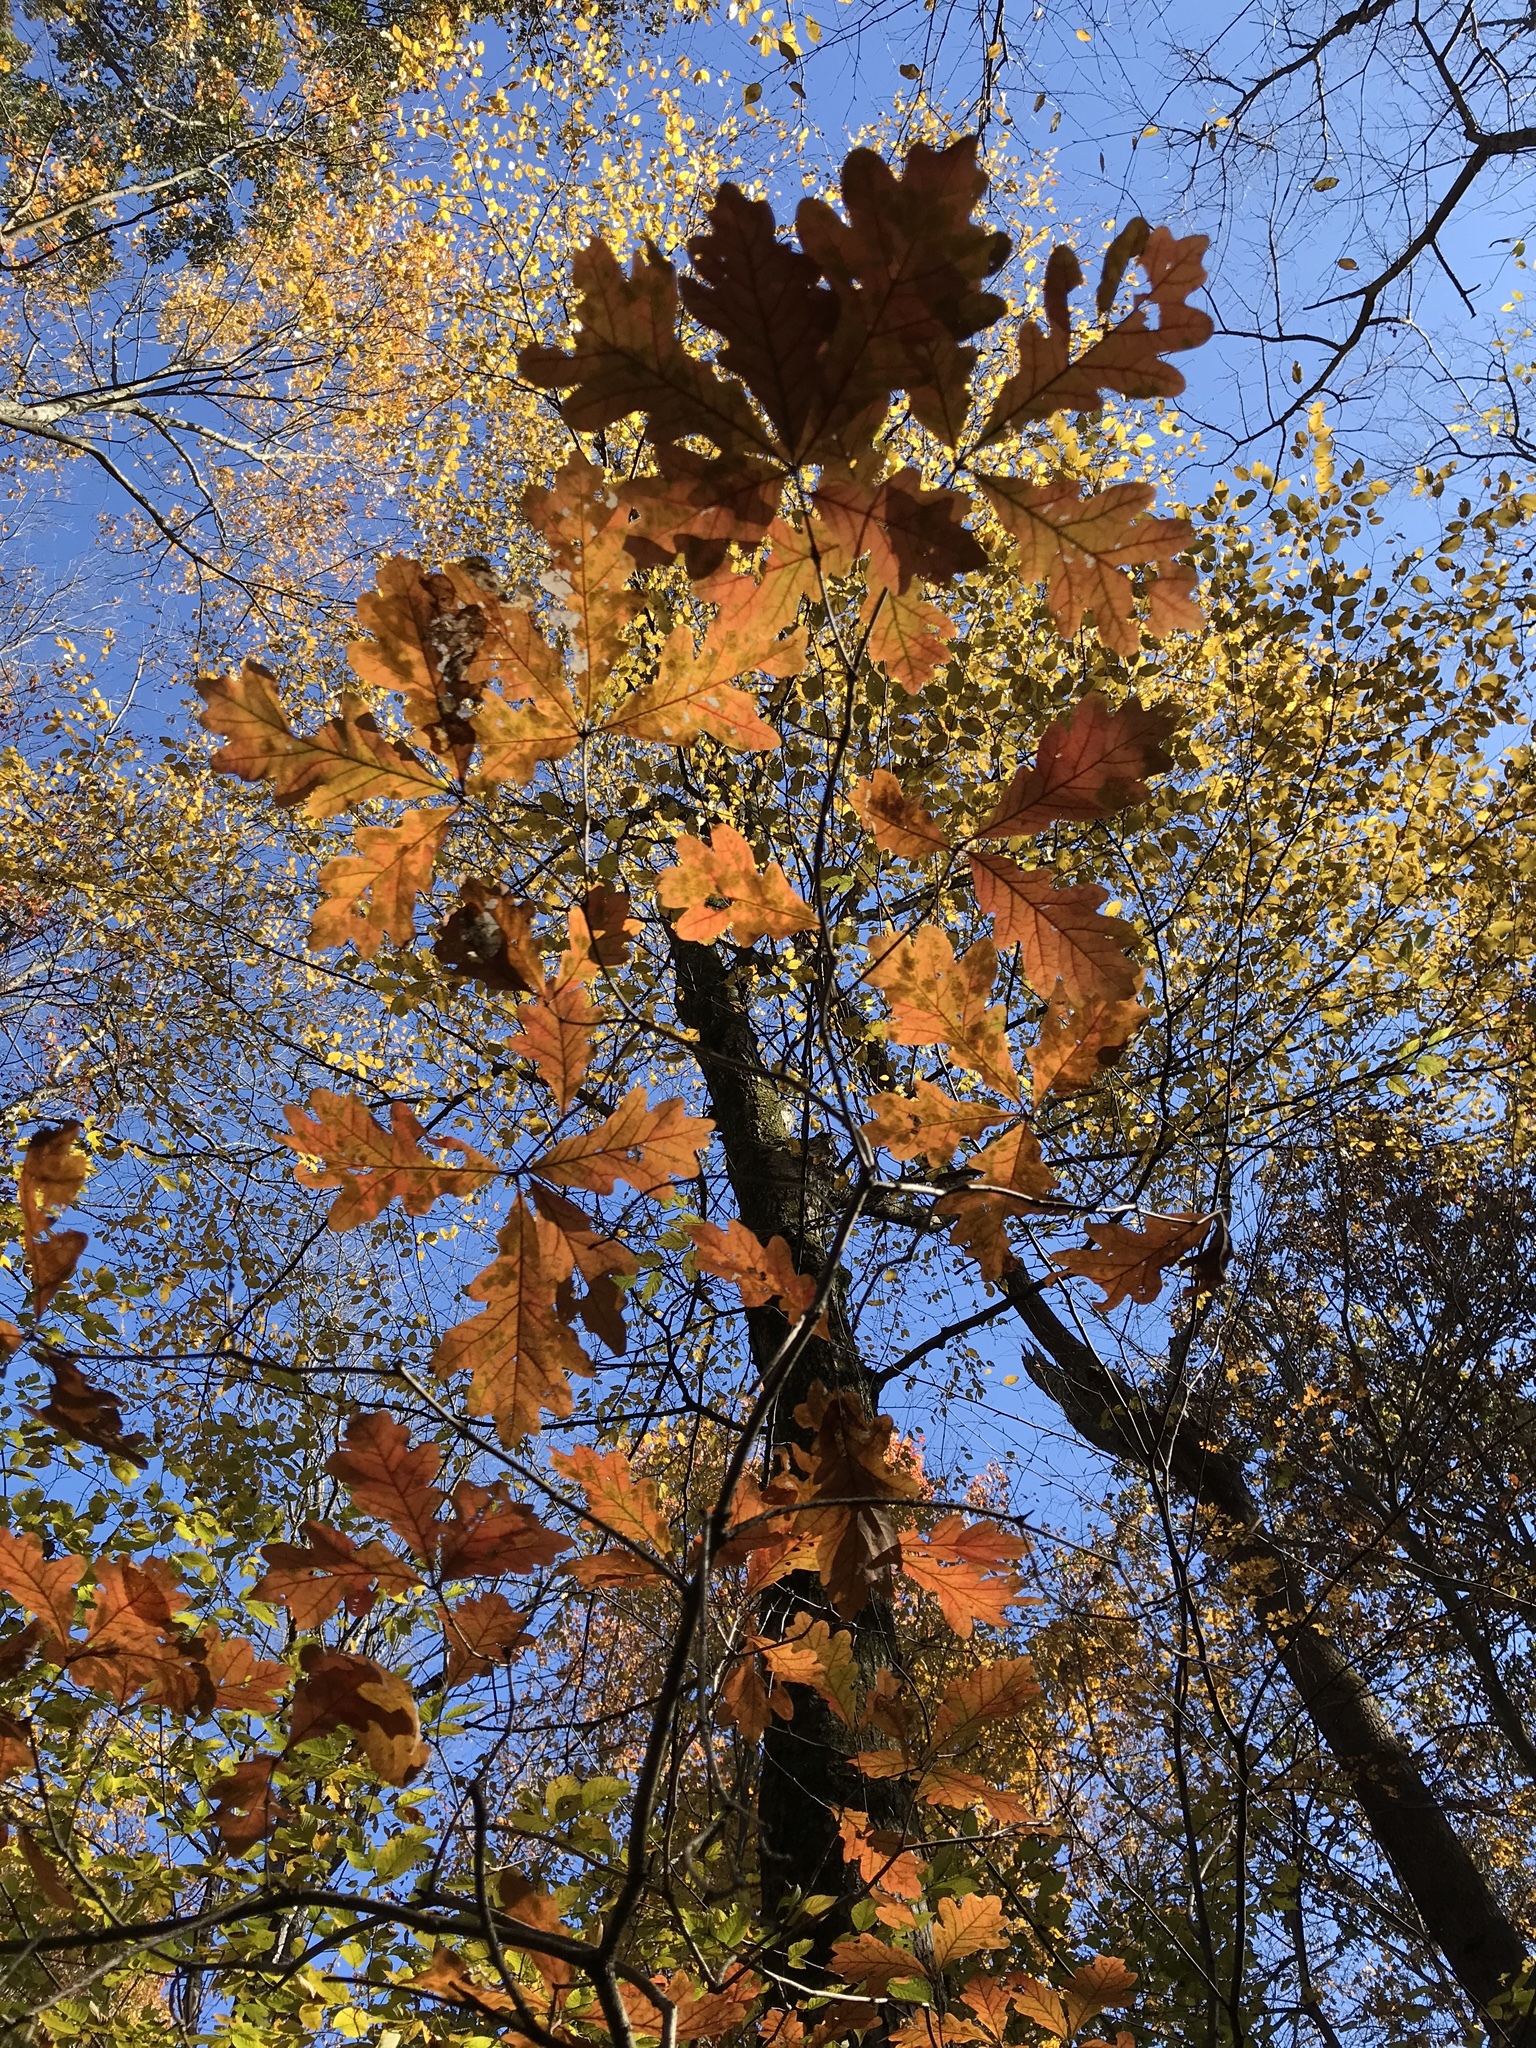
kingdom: Plantae
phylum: Tracheophyta
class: Magnoliopsida
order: Fagales
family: Fagaceae
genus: Quercus
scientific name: Quercus alba
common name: White oak
